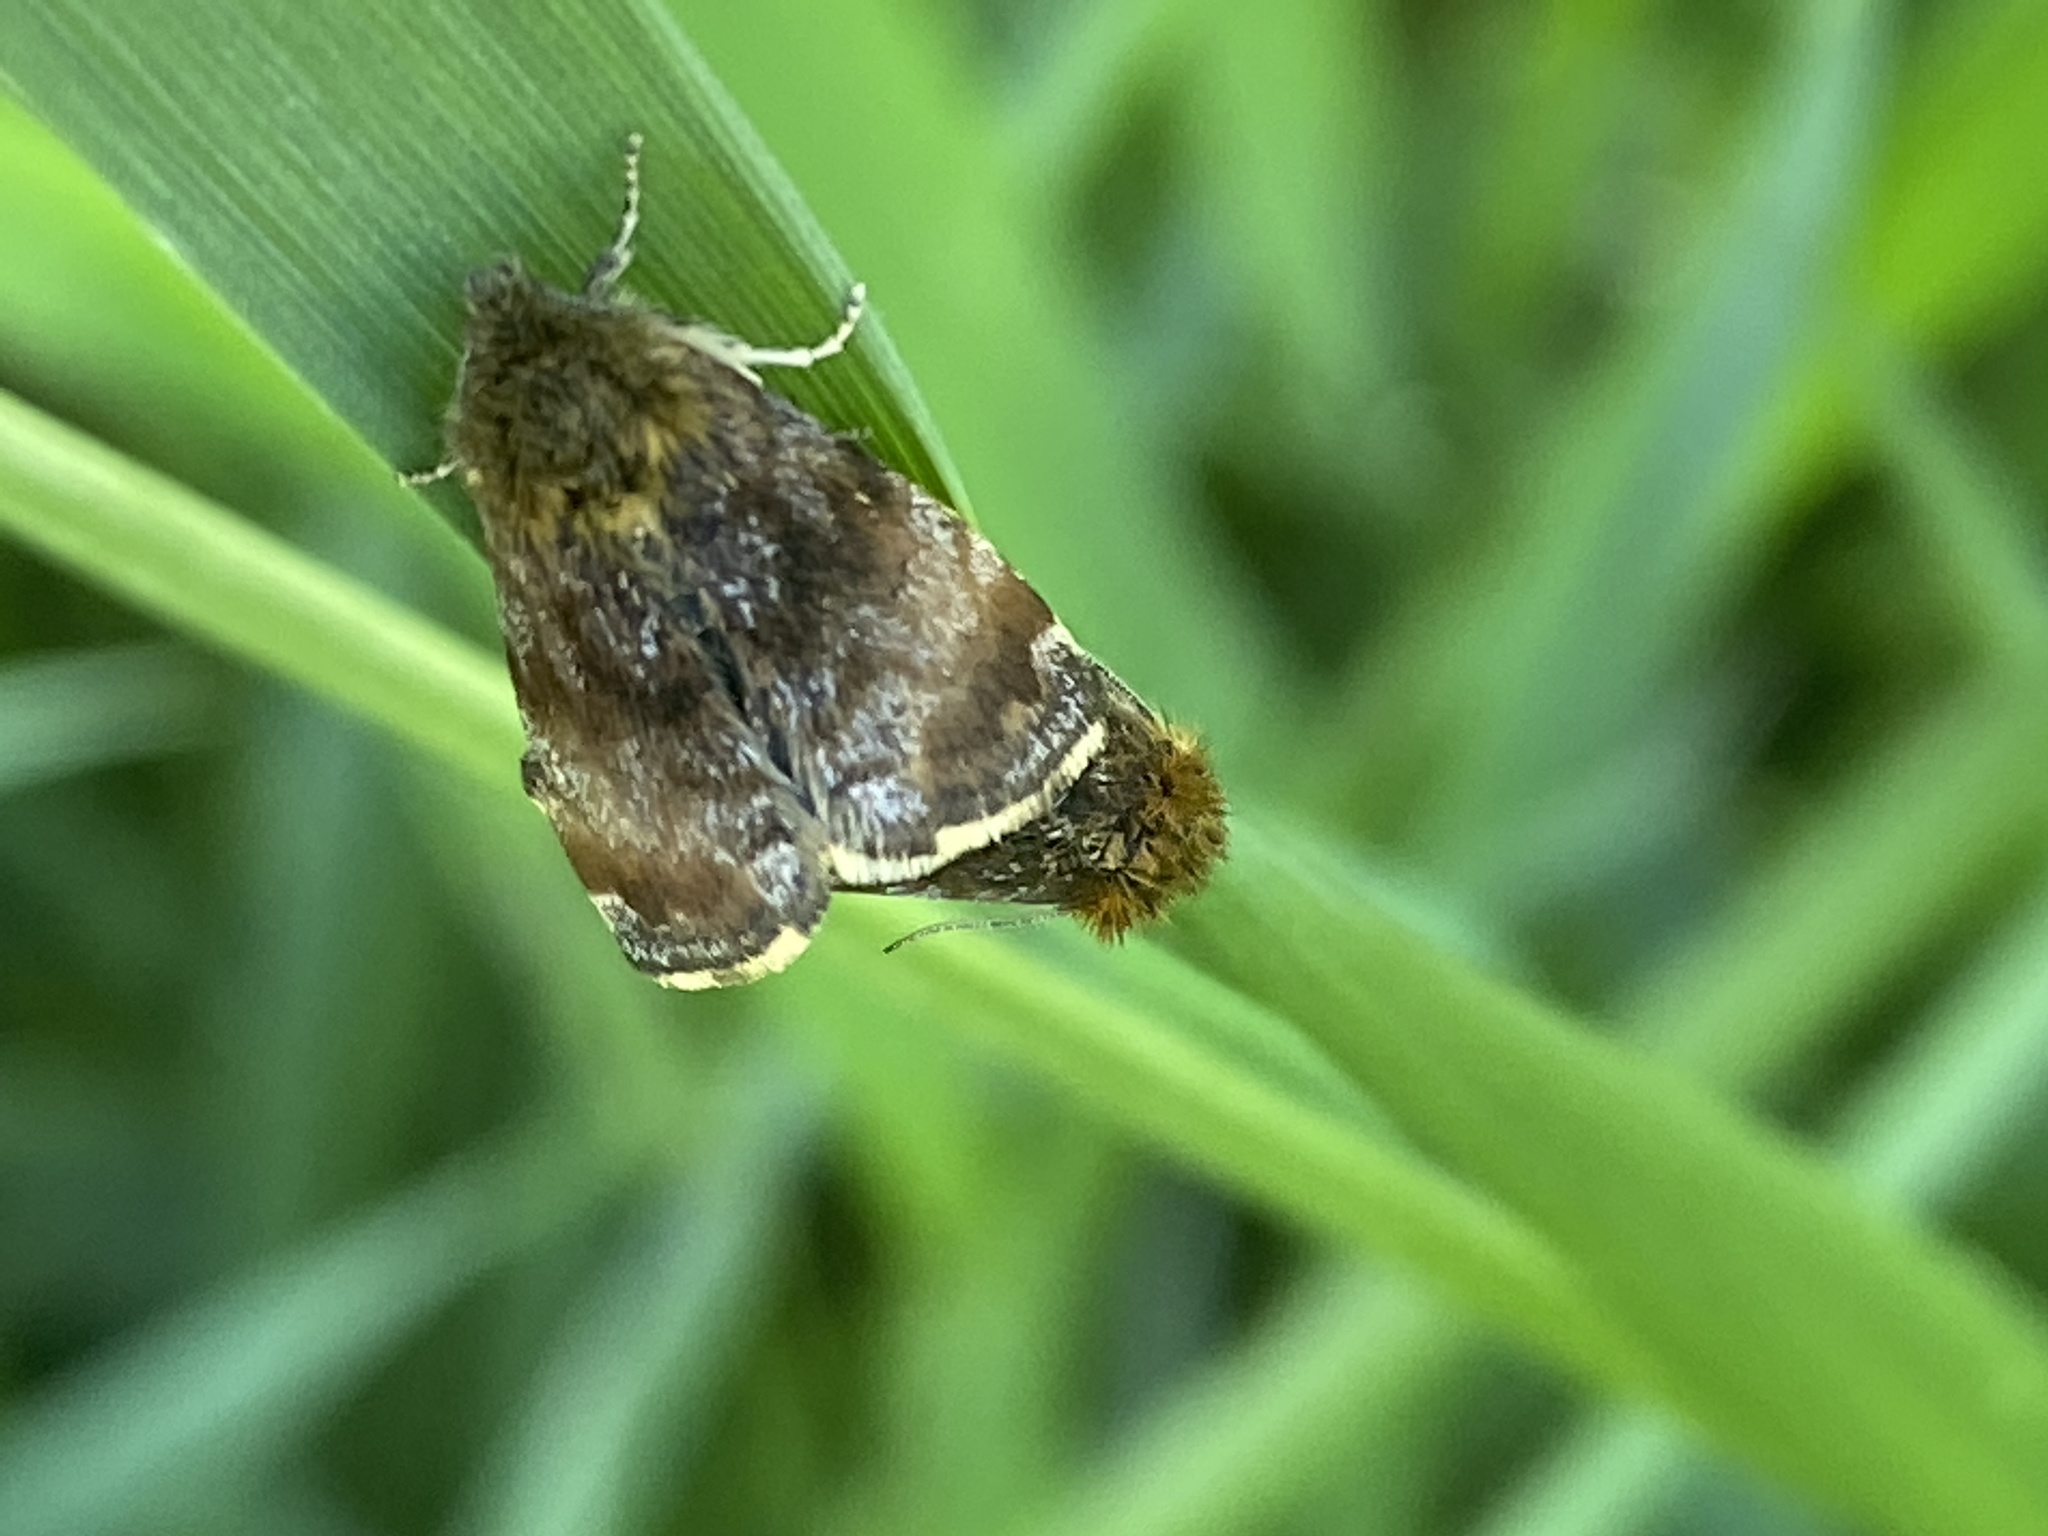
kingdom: Animalia
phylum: Arthropoda
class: Insecta
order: Lepidoptera
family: Noctuidae
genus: Panemeria
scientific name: Panemeria tenebrata
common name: Small yellow underwing
